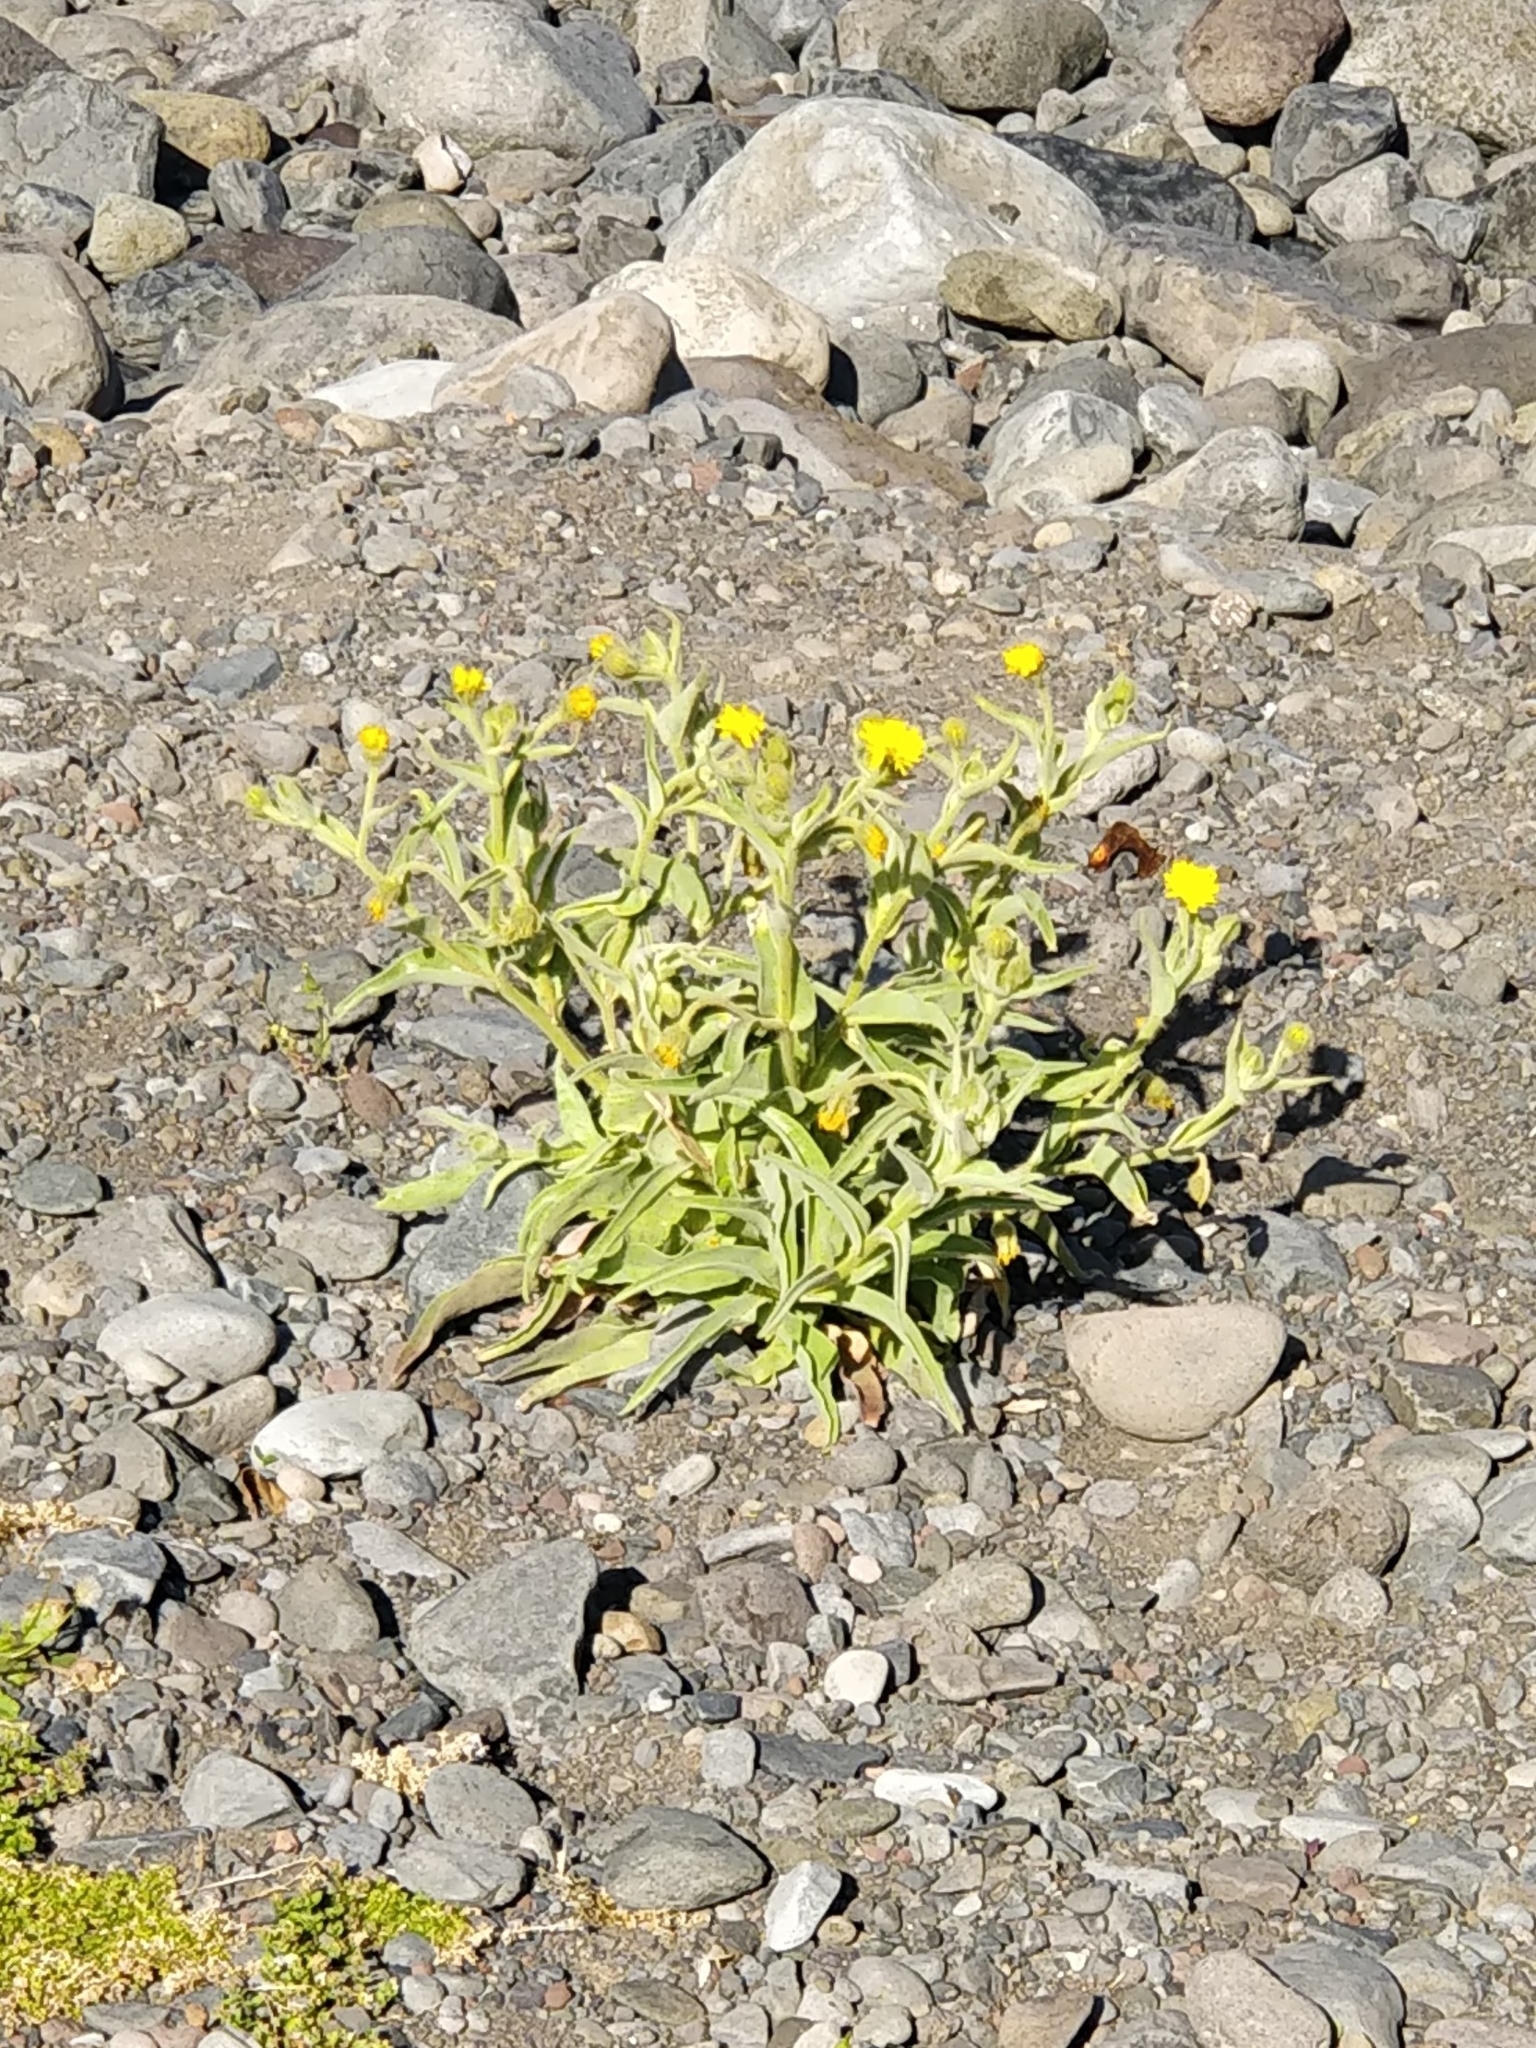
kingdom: Plantae
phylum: Tracheophyta
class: Magnoliopsida
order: Asterales
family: Asteraceae
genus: Andryala
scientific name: Andryala glandulosa
